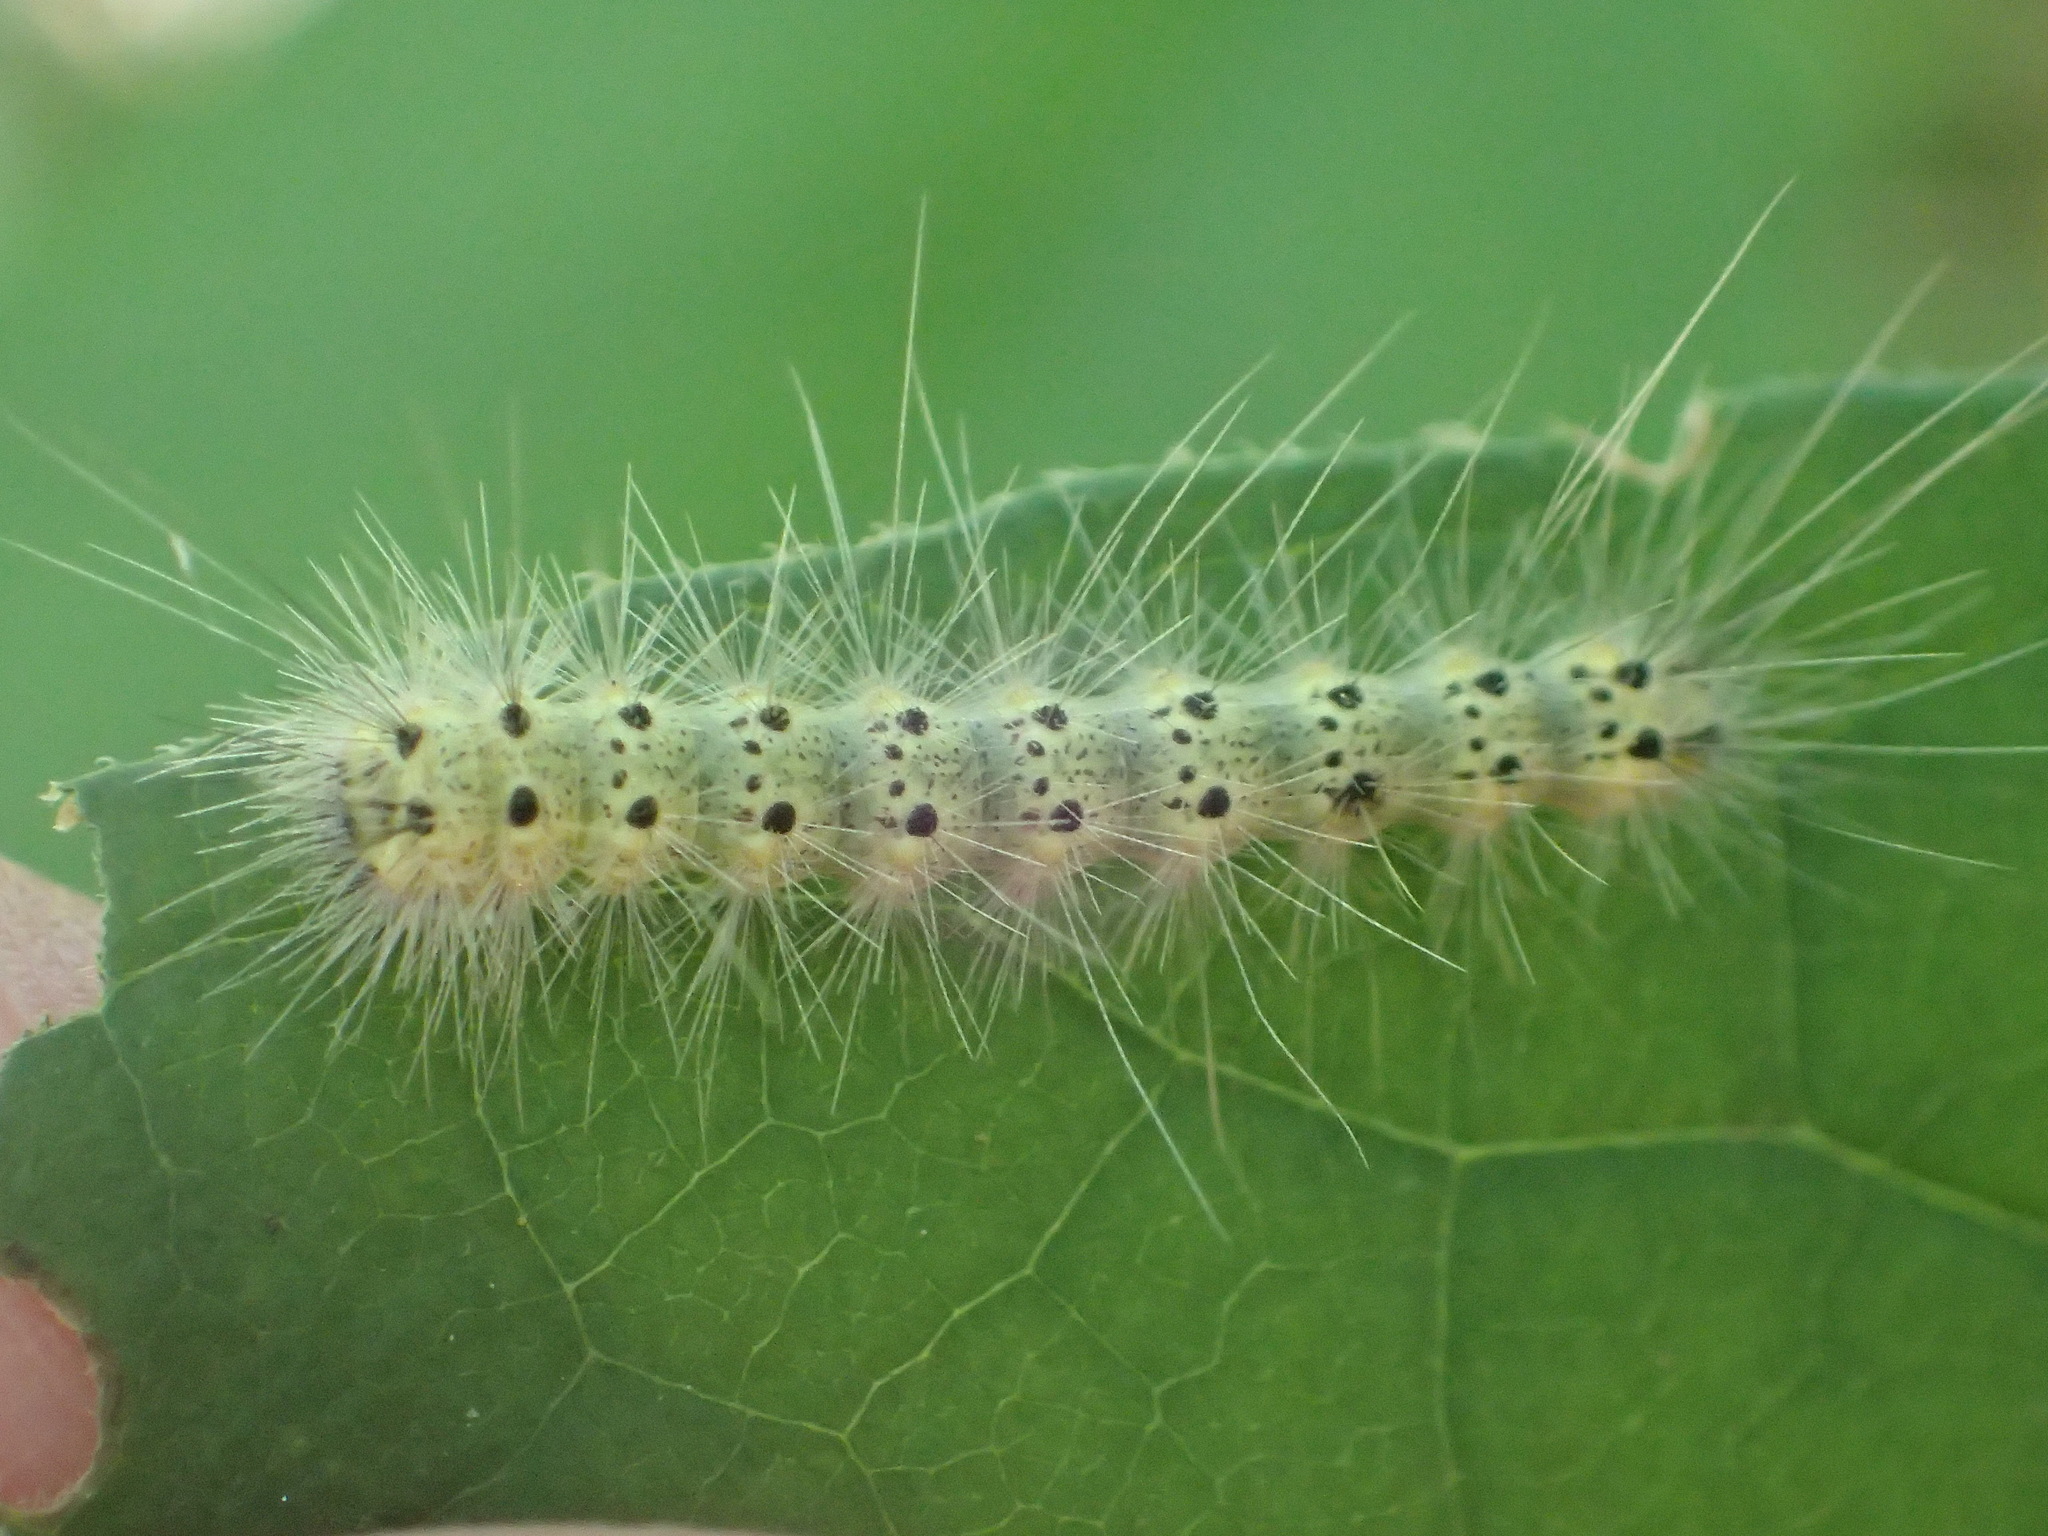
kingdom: Animalia
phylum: Arthropoda
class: Insecta
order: Lepidoptera
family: Erebidae
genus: Hyphantria
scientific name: Hyphantria cunea
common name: American white moth
